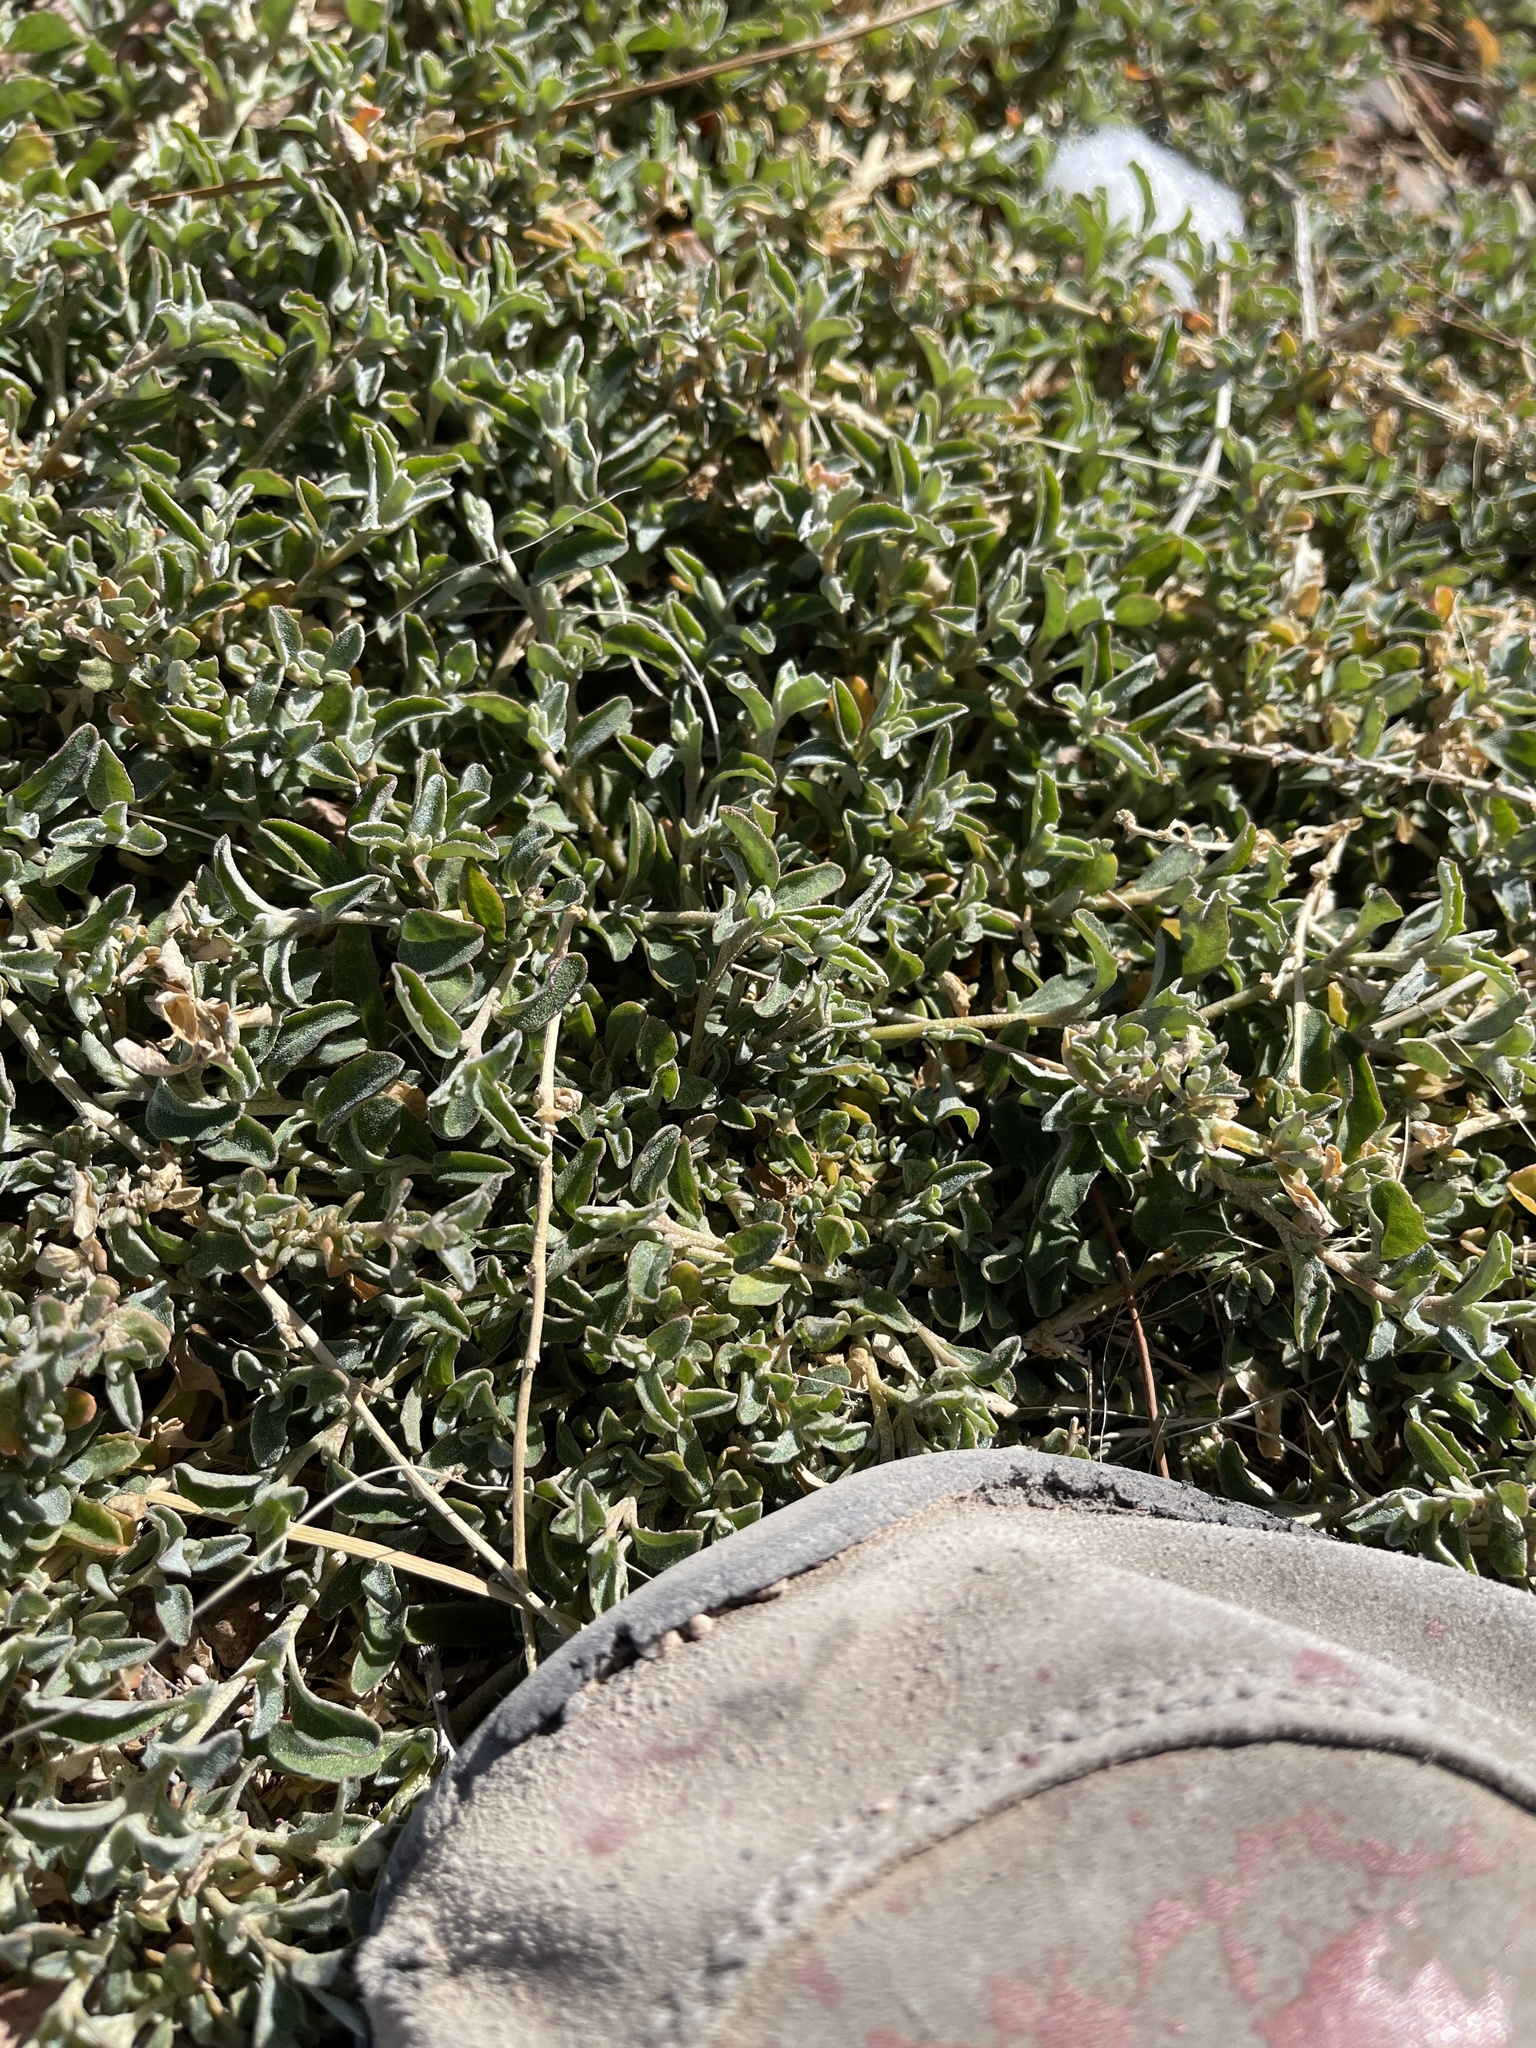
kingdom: Plantae
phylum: Tracheophyta
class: Magnoliopsida
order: Caryophyllales
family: Amaranthaceae
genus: Atriplex
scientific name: Atriplex semibaccata
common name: Australian saltbush
